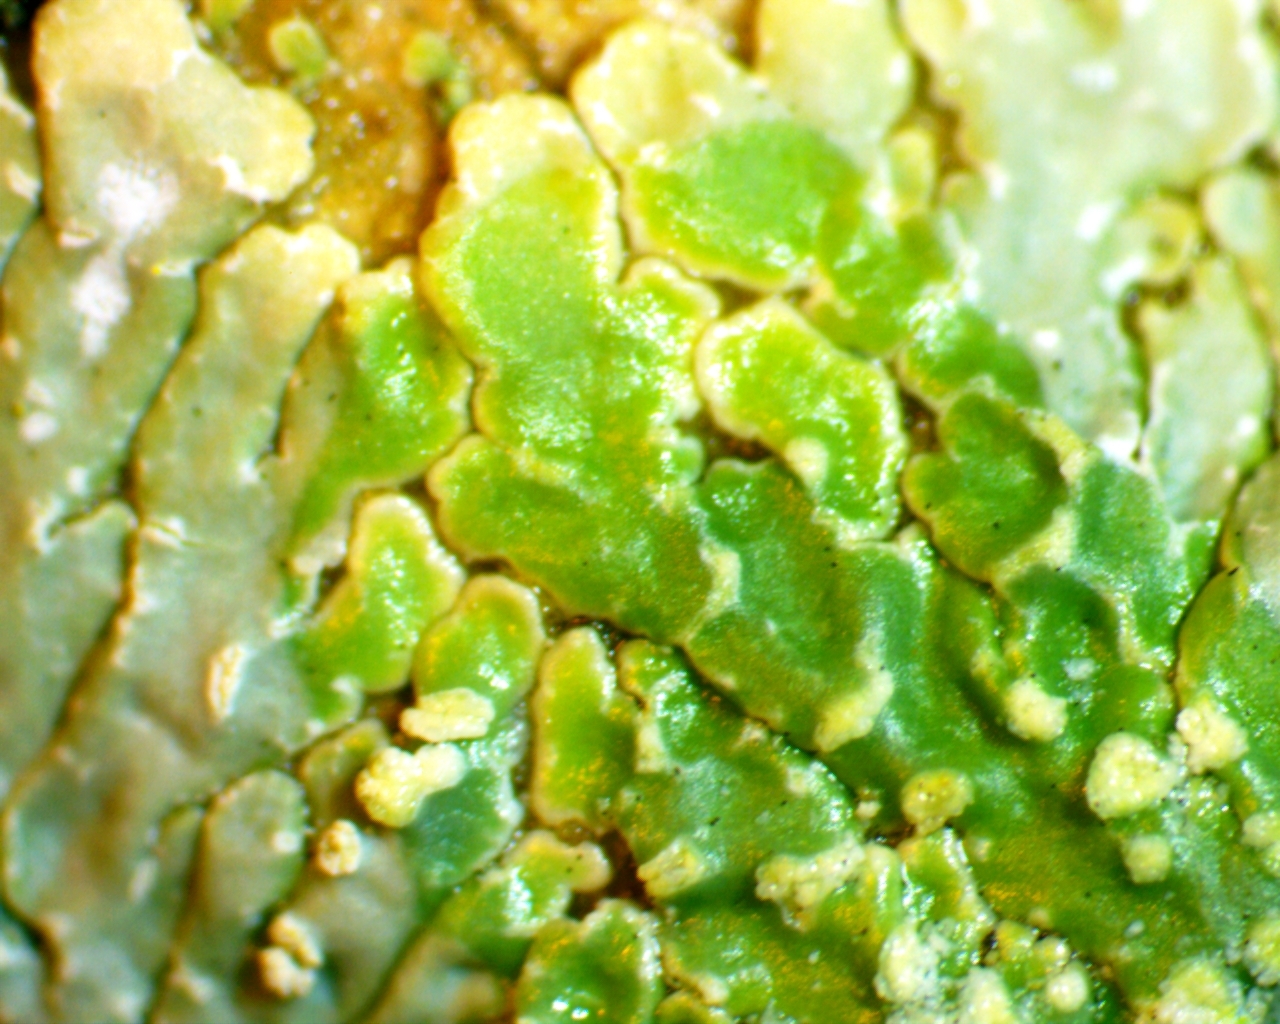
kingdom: Fungi
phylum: Ascomycota
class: Lecanoromycetes
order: Caliciales
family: Caliciaceae
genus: Pyxine
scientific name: Pyxine subcinerea
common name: Mustard lichen
